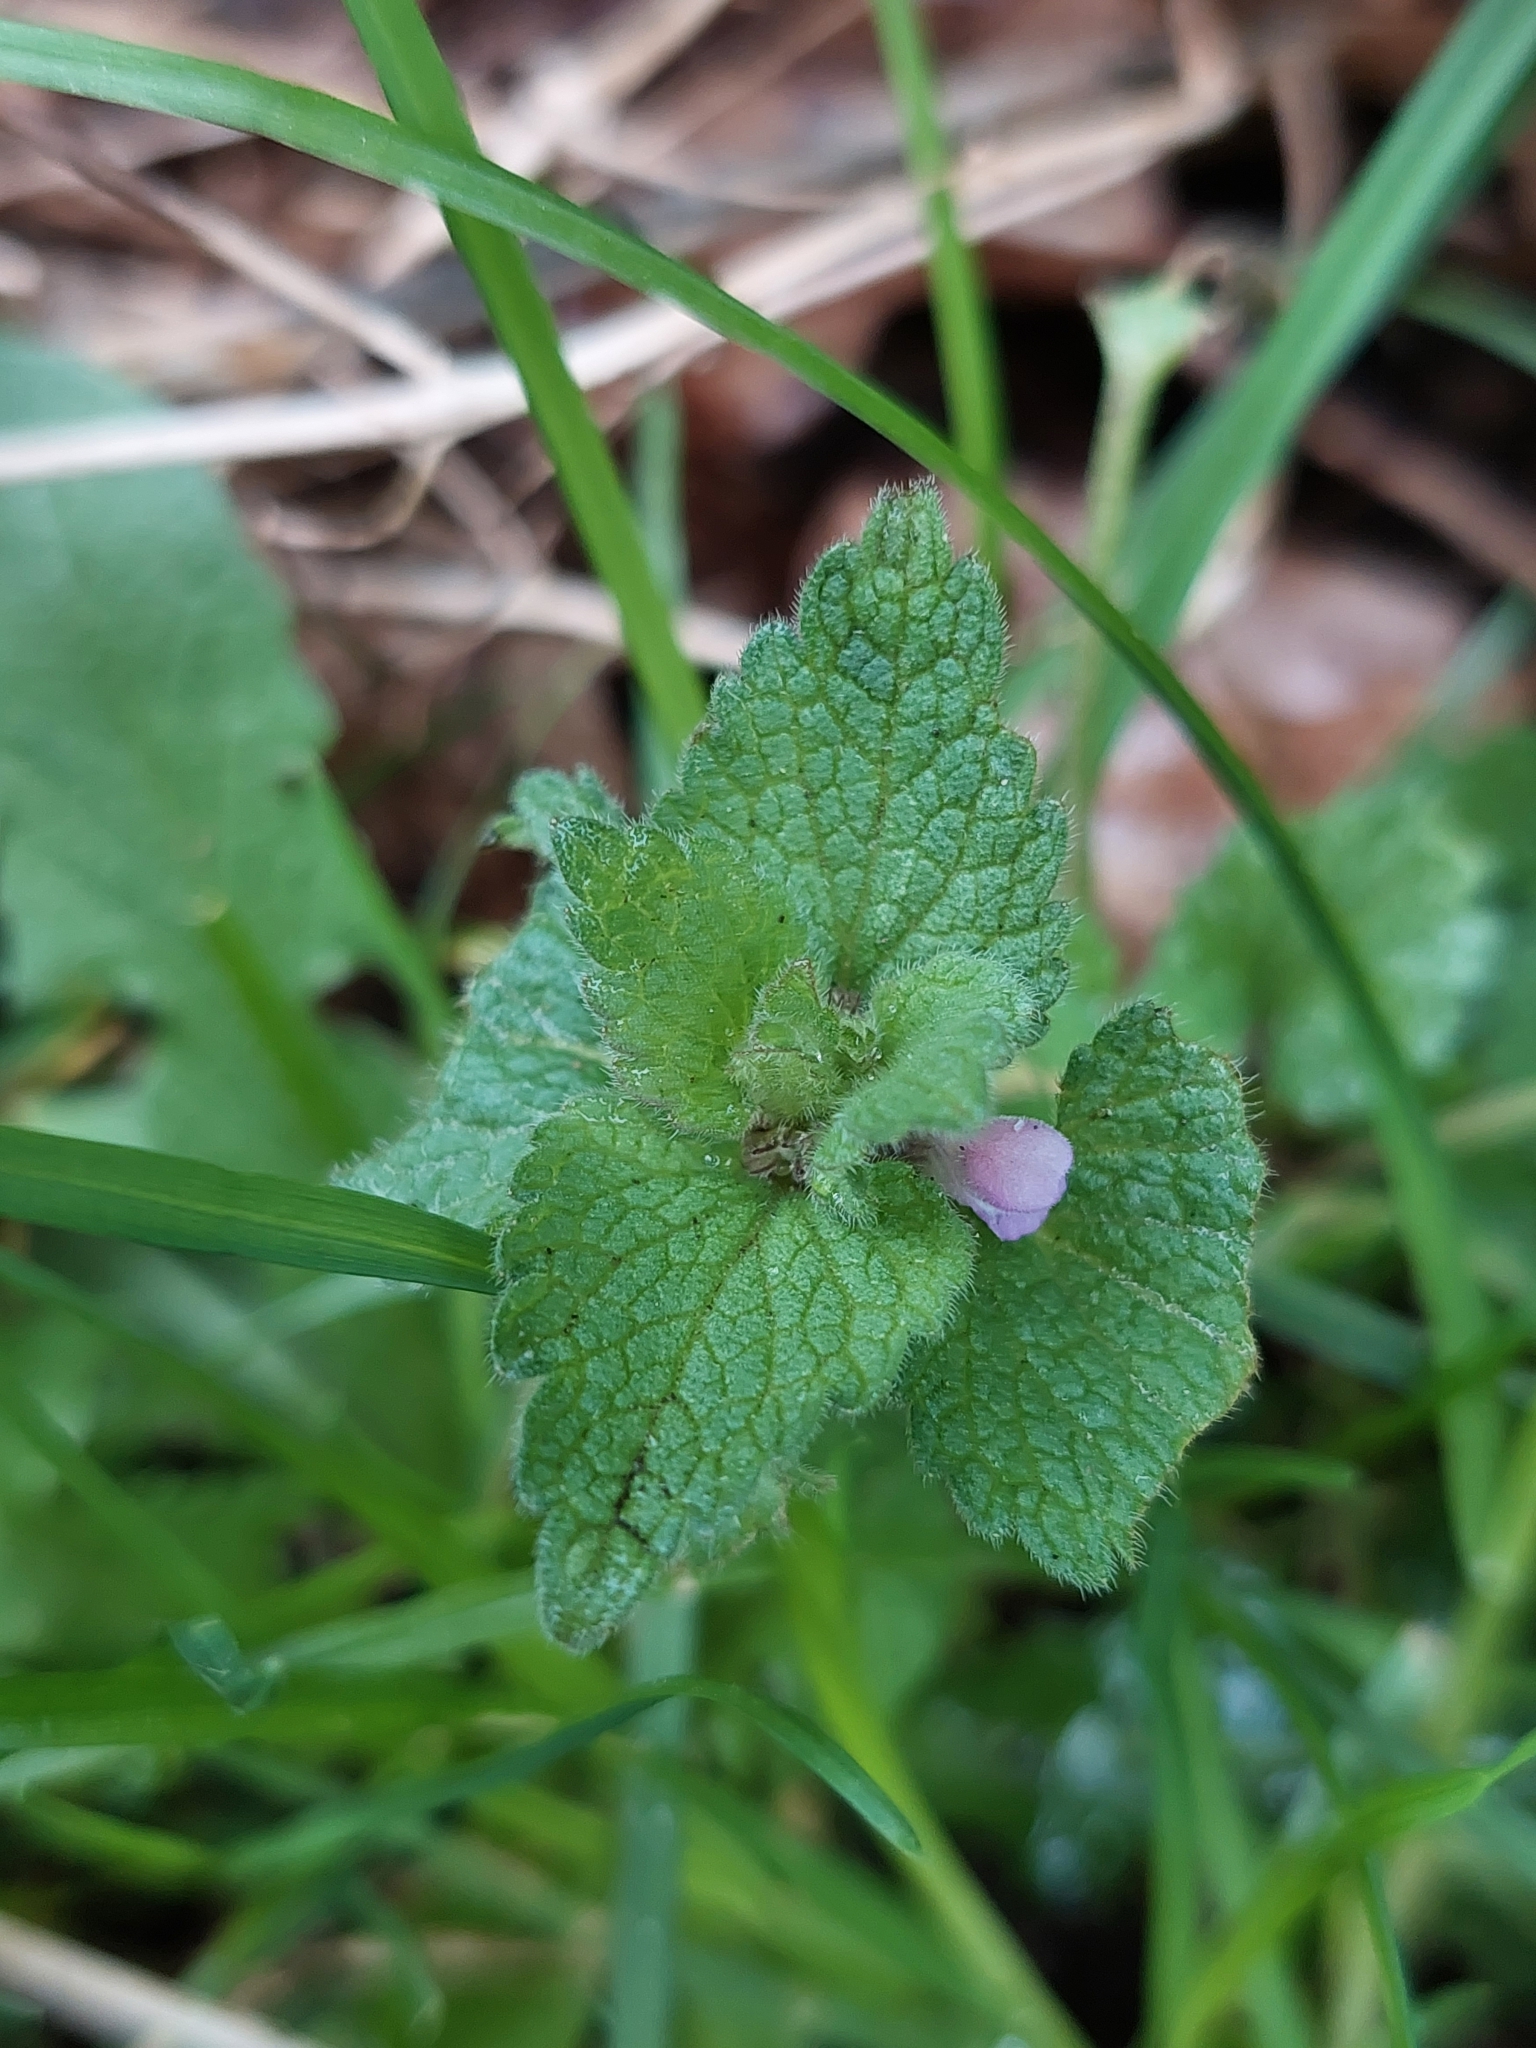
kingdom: Plantae
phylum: Tracheophyta
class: Magnoliopsida
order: Lamiales
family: Lamiaceae
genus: Lamium
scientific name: Lamium purpureum
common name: Red dead-nettle
